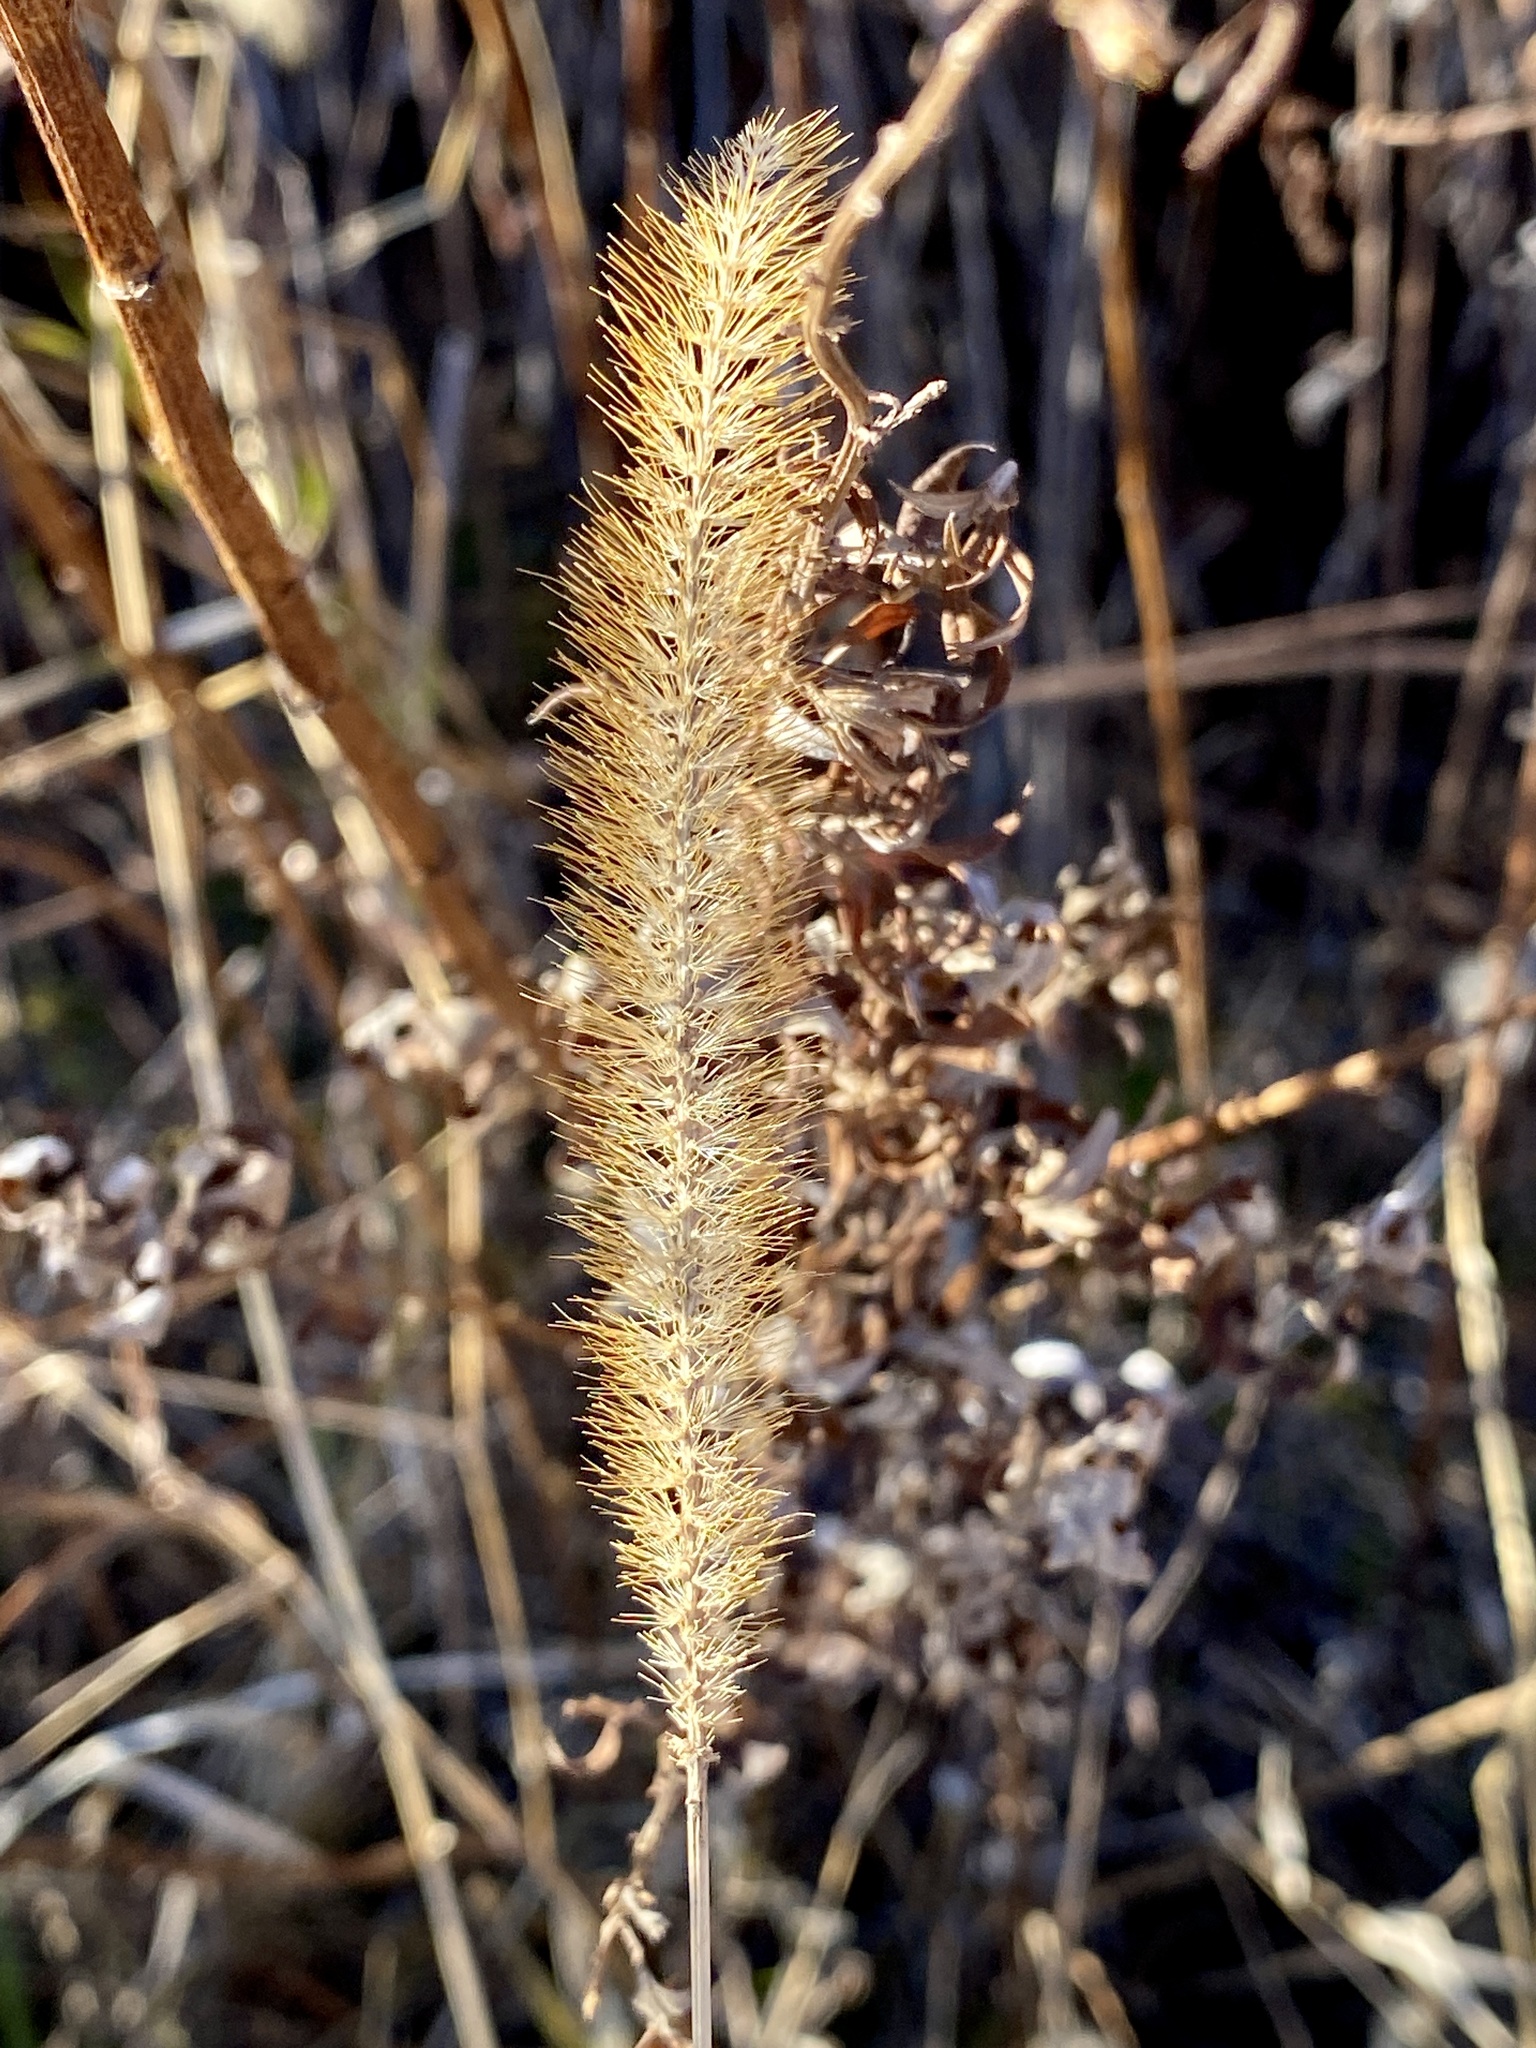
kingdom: Plantae
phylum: Tracheophyta
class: Liliopsida
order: Poales
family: Poaceae
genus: Setaria
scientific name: Setaria pumila
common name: Yellow bristle-grass
